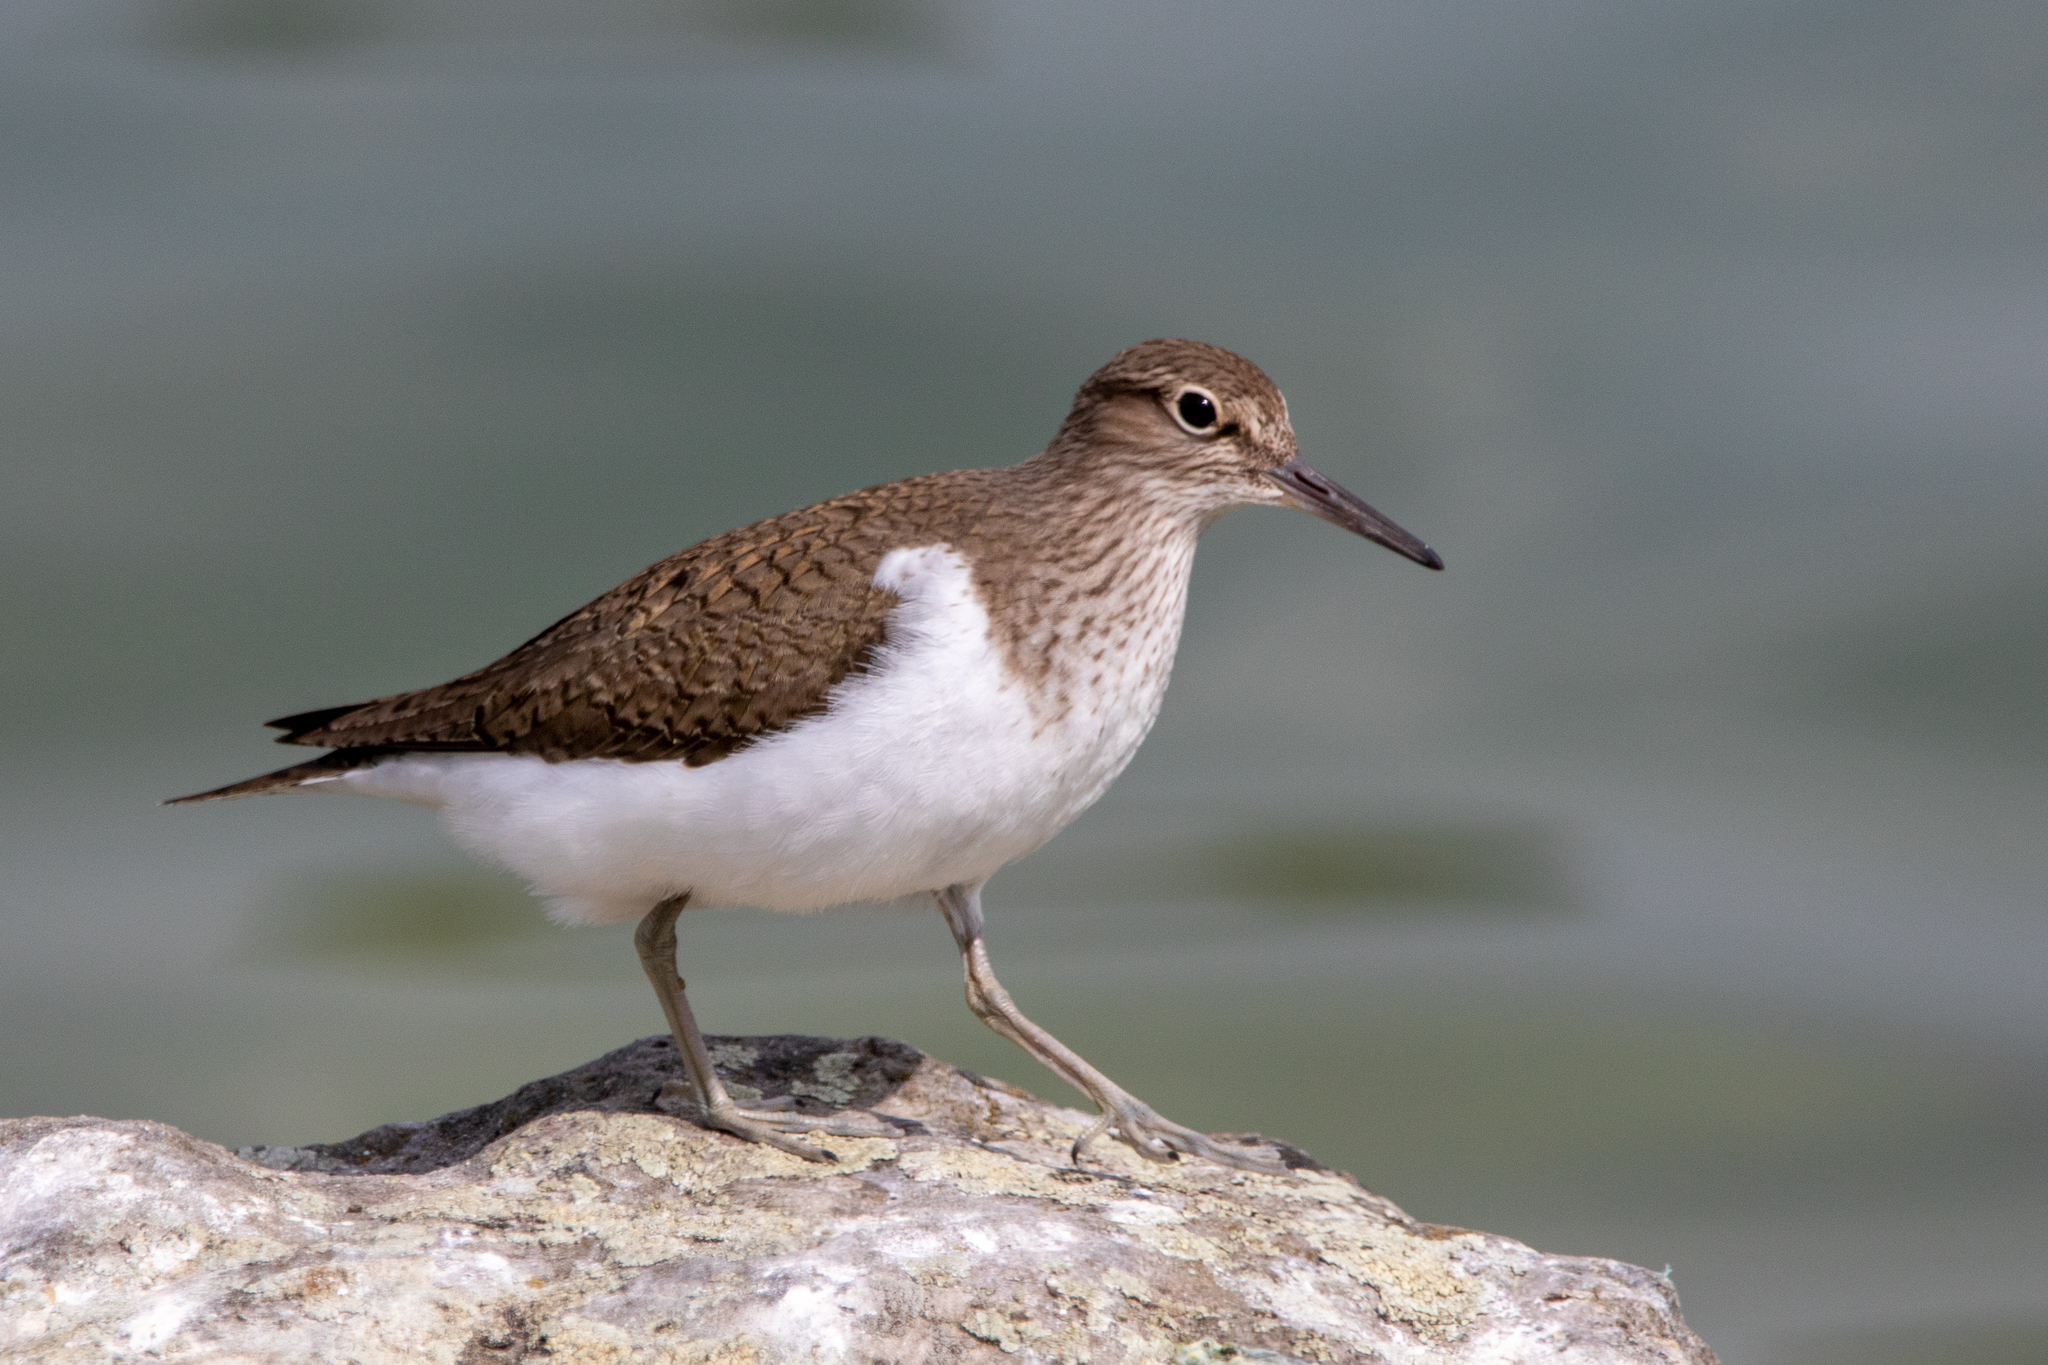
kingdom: Animalia
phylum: Chordata
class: Aves
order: Charadriiformes
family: Scolopacidae
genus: Actitis
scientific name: Actitis hypoleucos
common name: Common sandpiper
